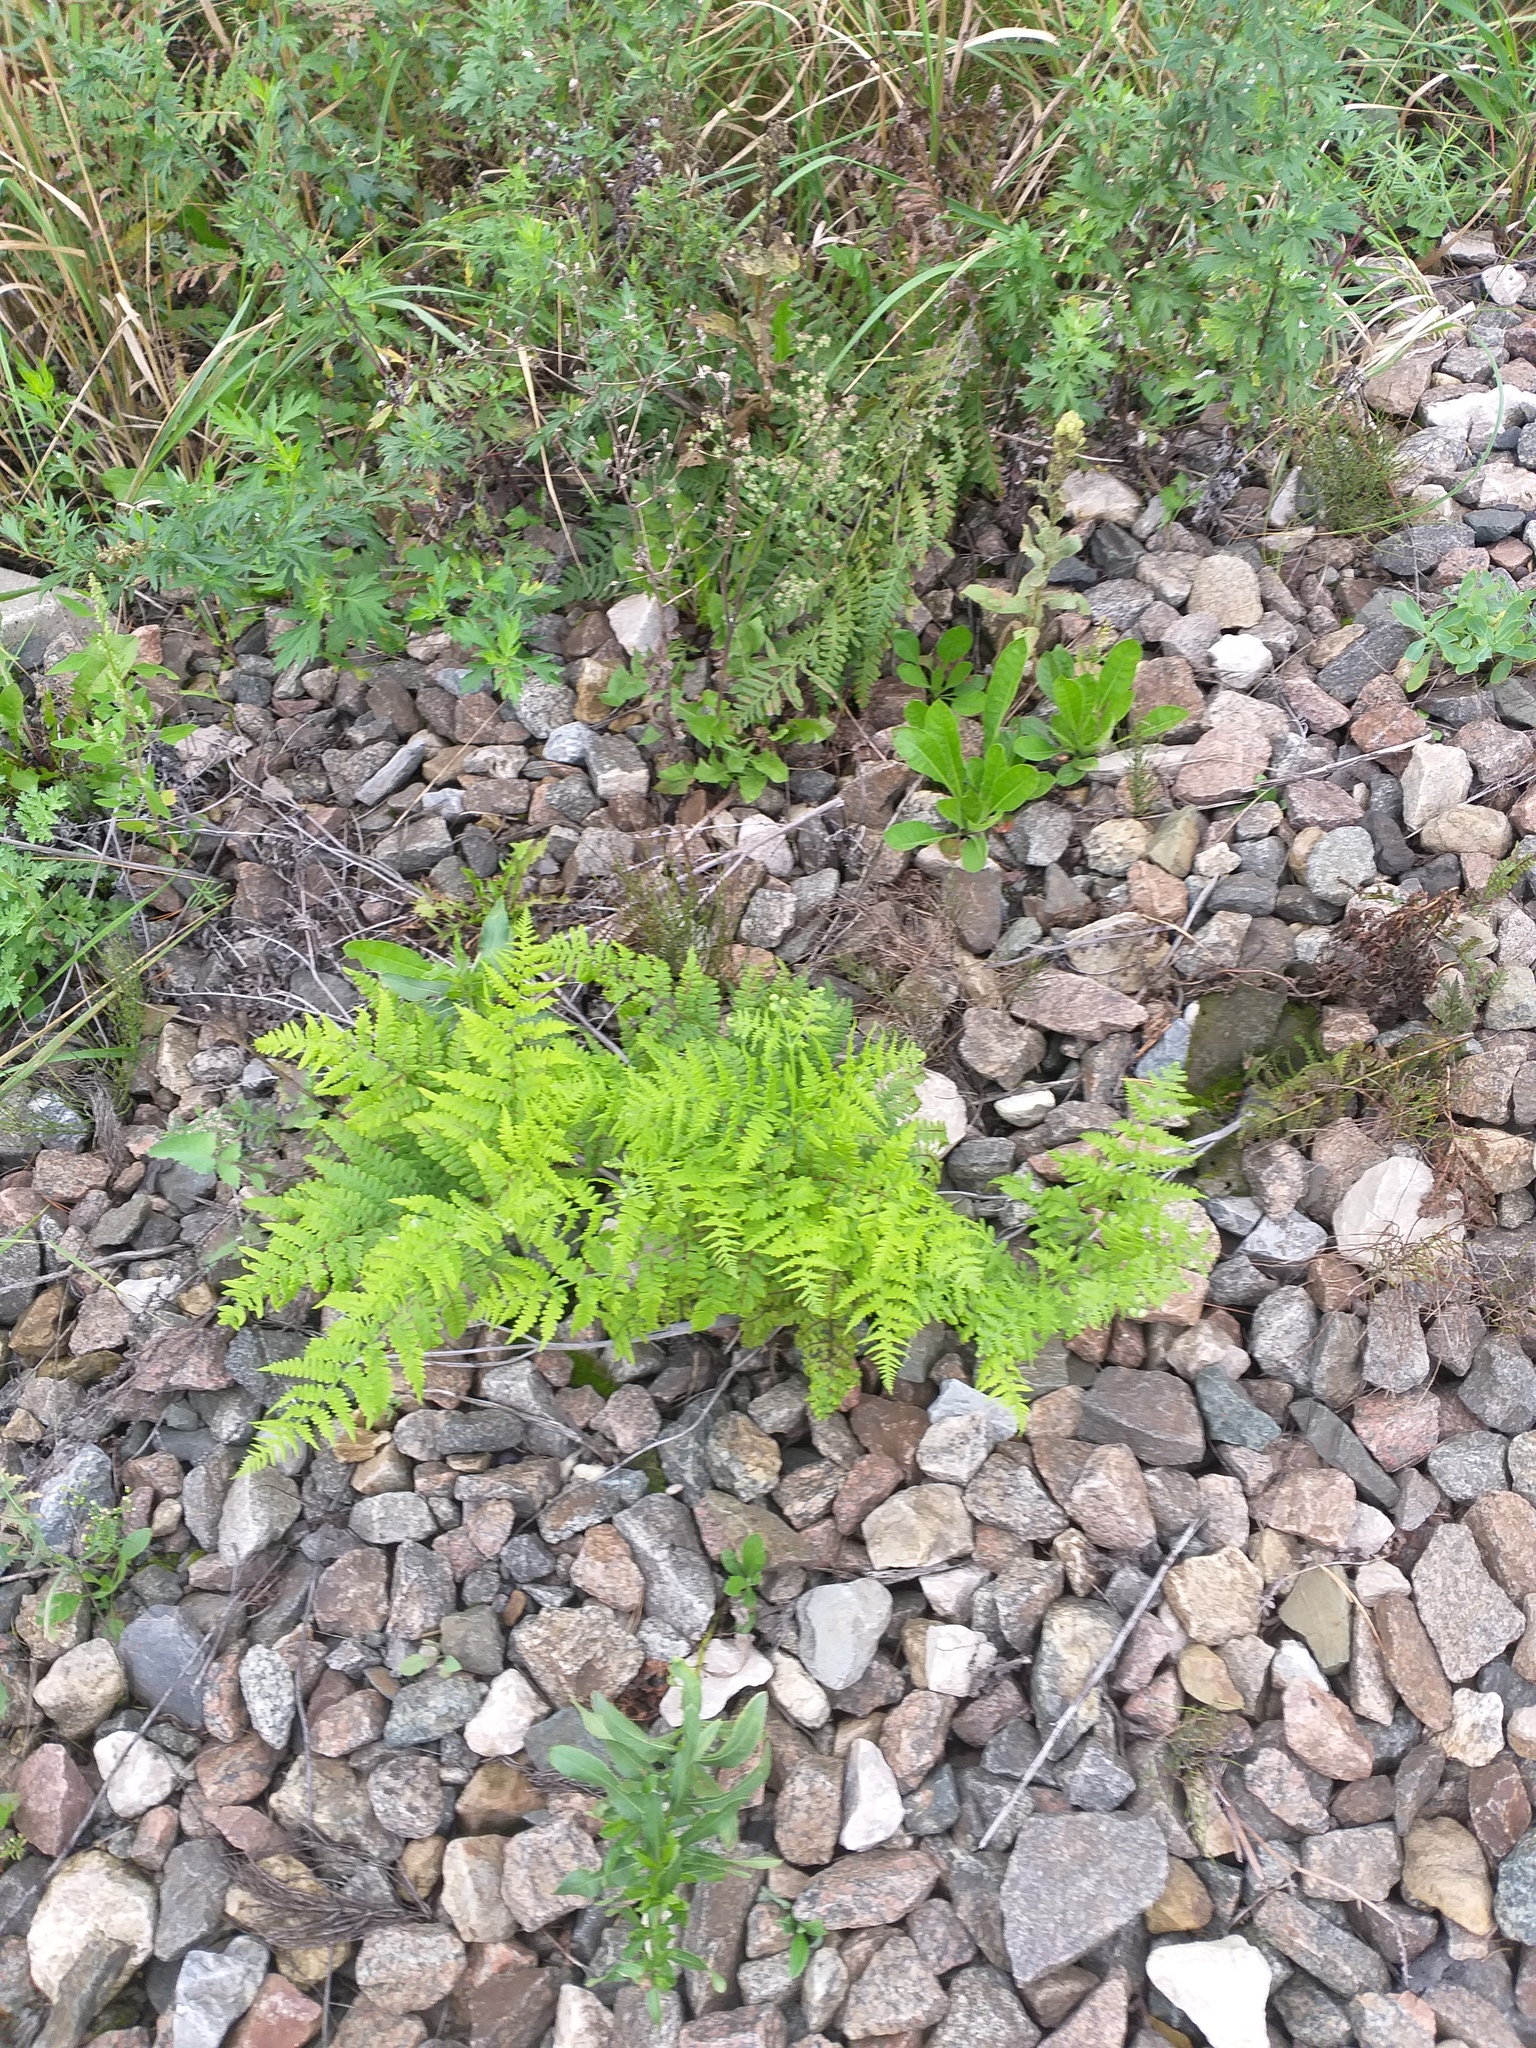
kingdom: Plantae
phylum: Tracheophyta
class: Polypodiopsida
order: Polypodiales
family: Dennstaedtiaceae
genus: Pteridium
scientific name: Pteridium aquilinum
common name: Bracken
